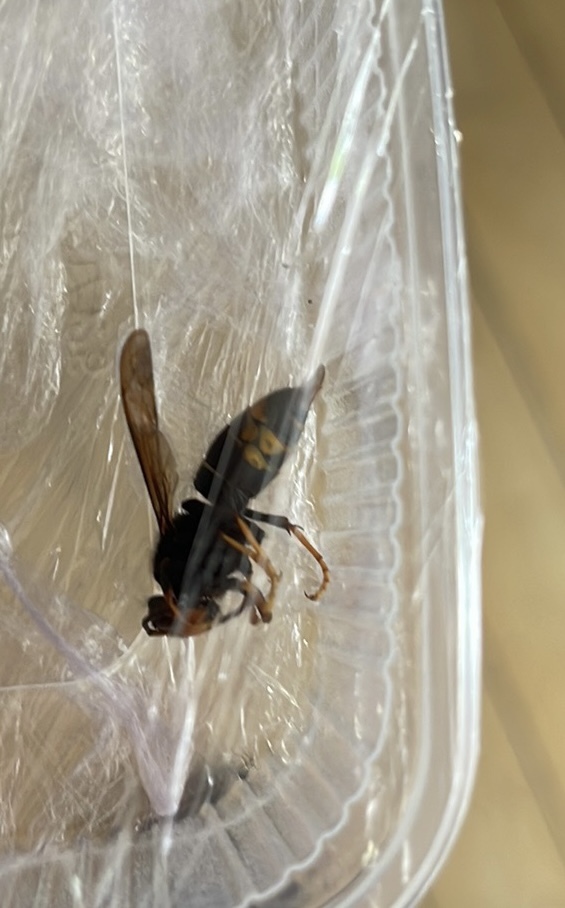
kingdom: Animalia
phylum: Arthropoda
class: Insecta
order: Hymenoptera
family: Vespidae
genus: Vespa
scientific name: Vespa velutina
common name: Asian hornet
